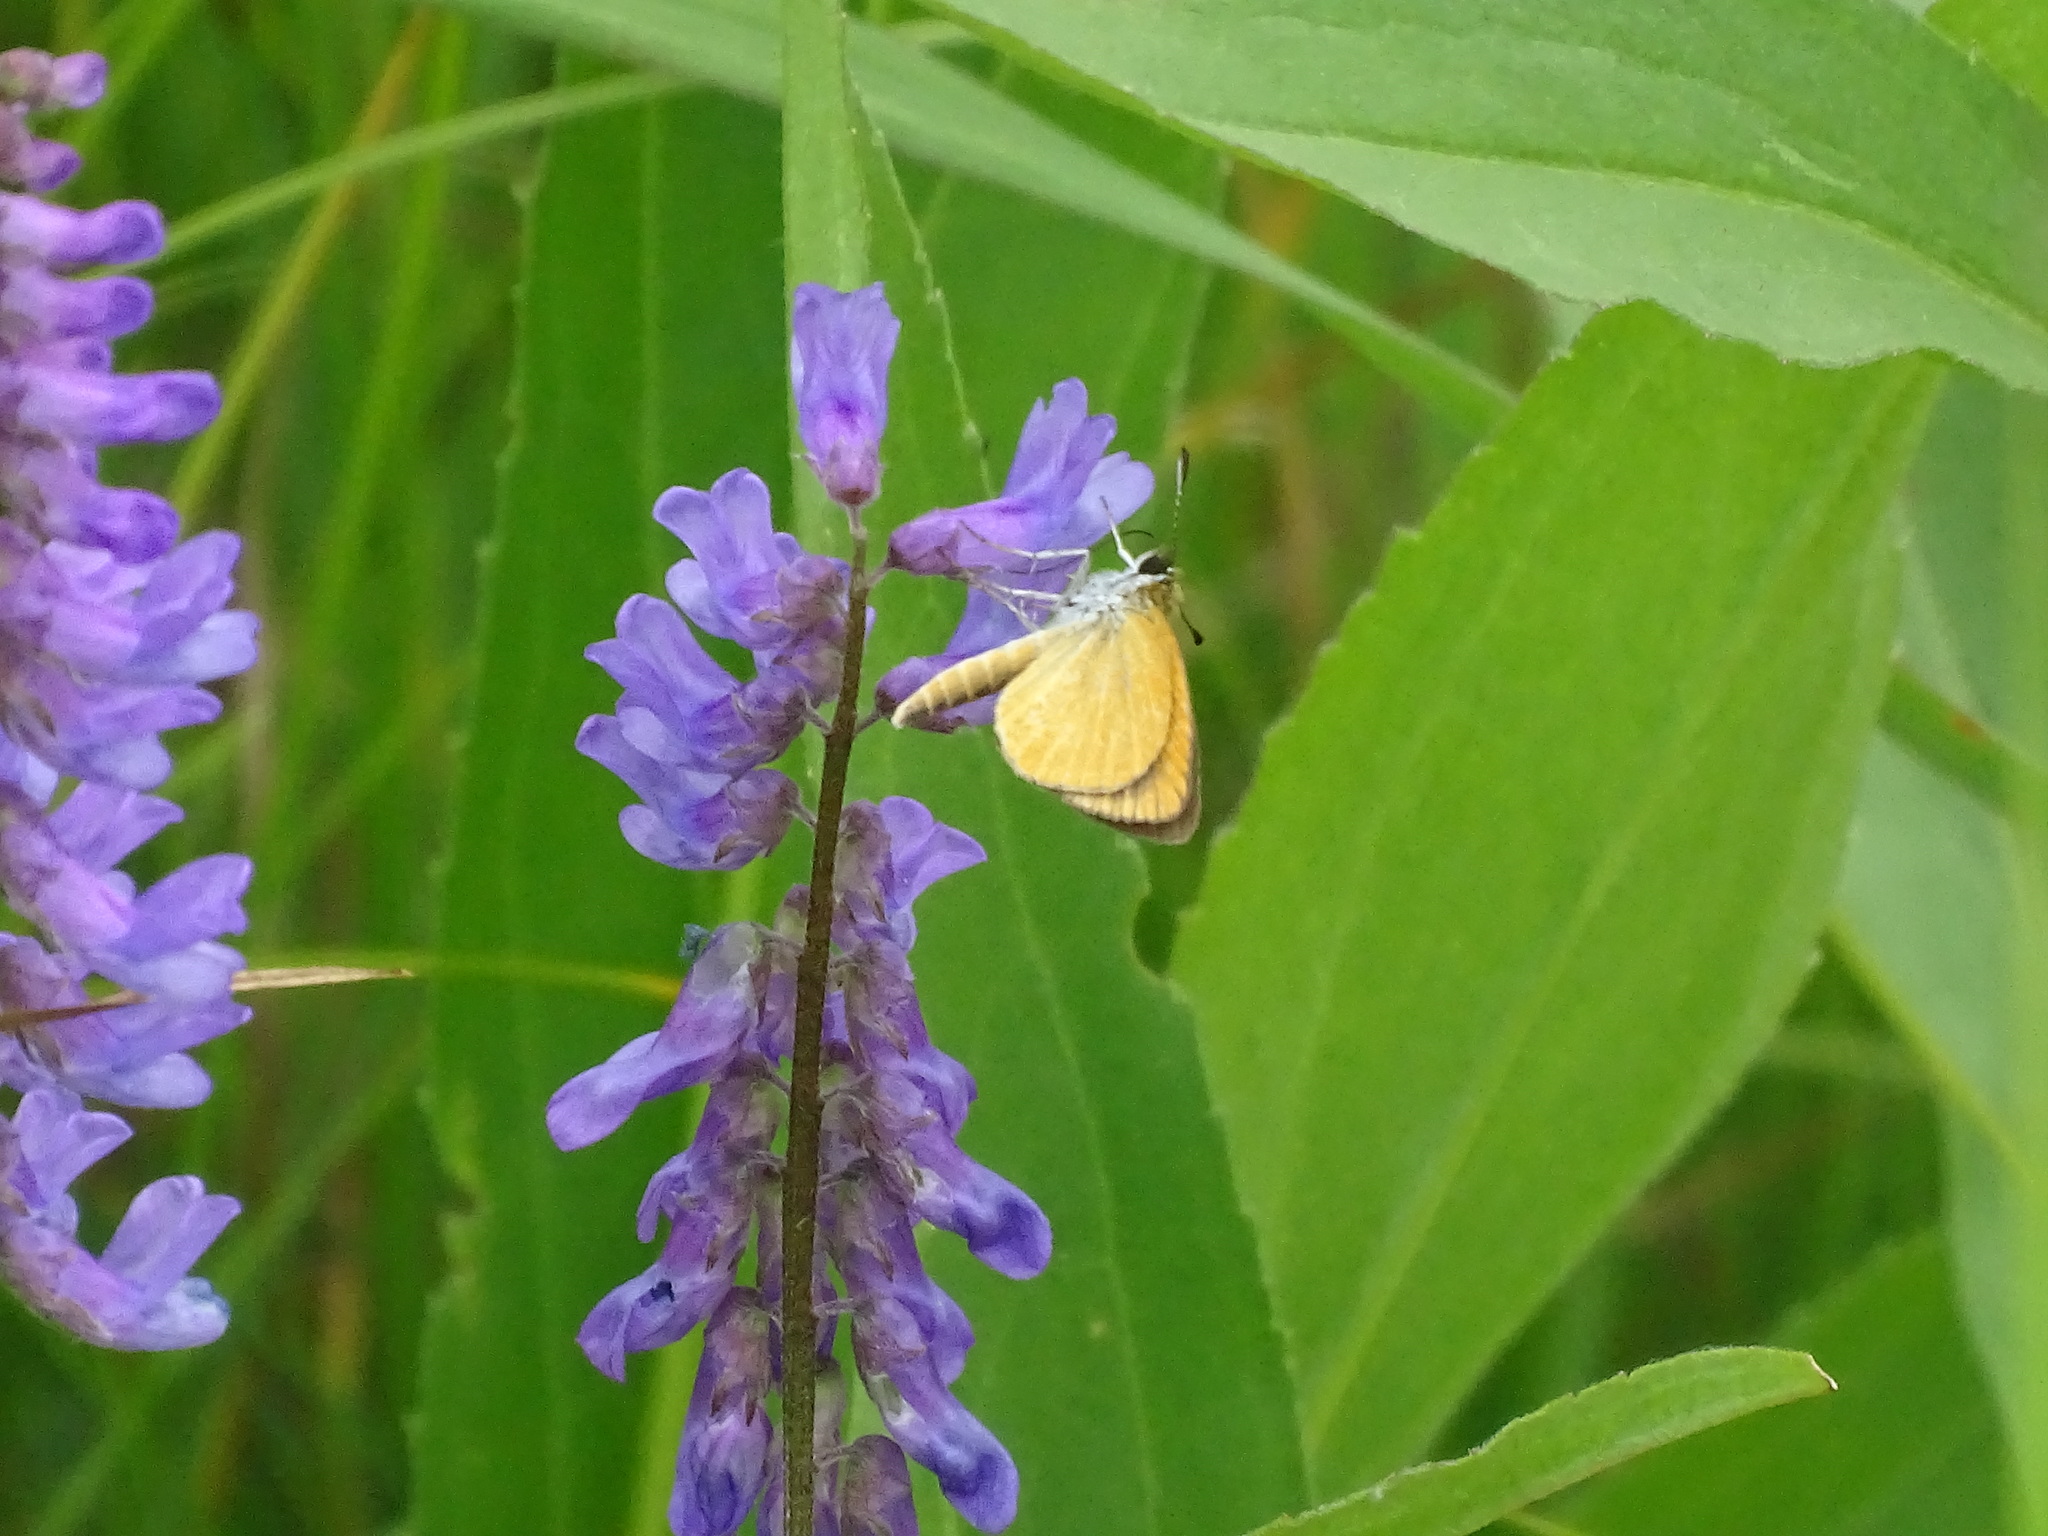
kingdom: Animalia
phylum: Arthropoda
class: Insecta
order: Lepidoptera
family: Hesperiidae
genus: Ancyloxypha
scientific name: Ancyloxypha numitor
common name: Least skipper
